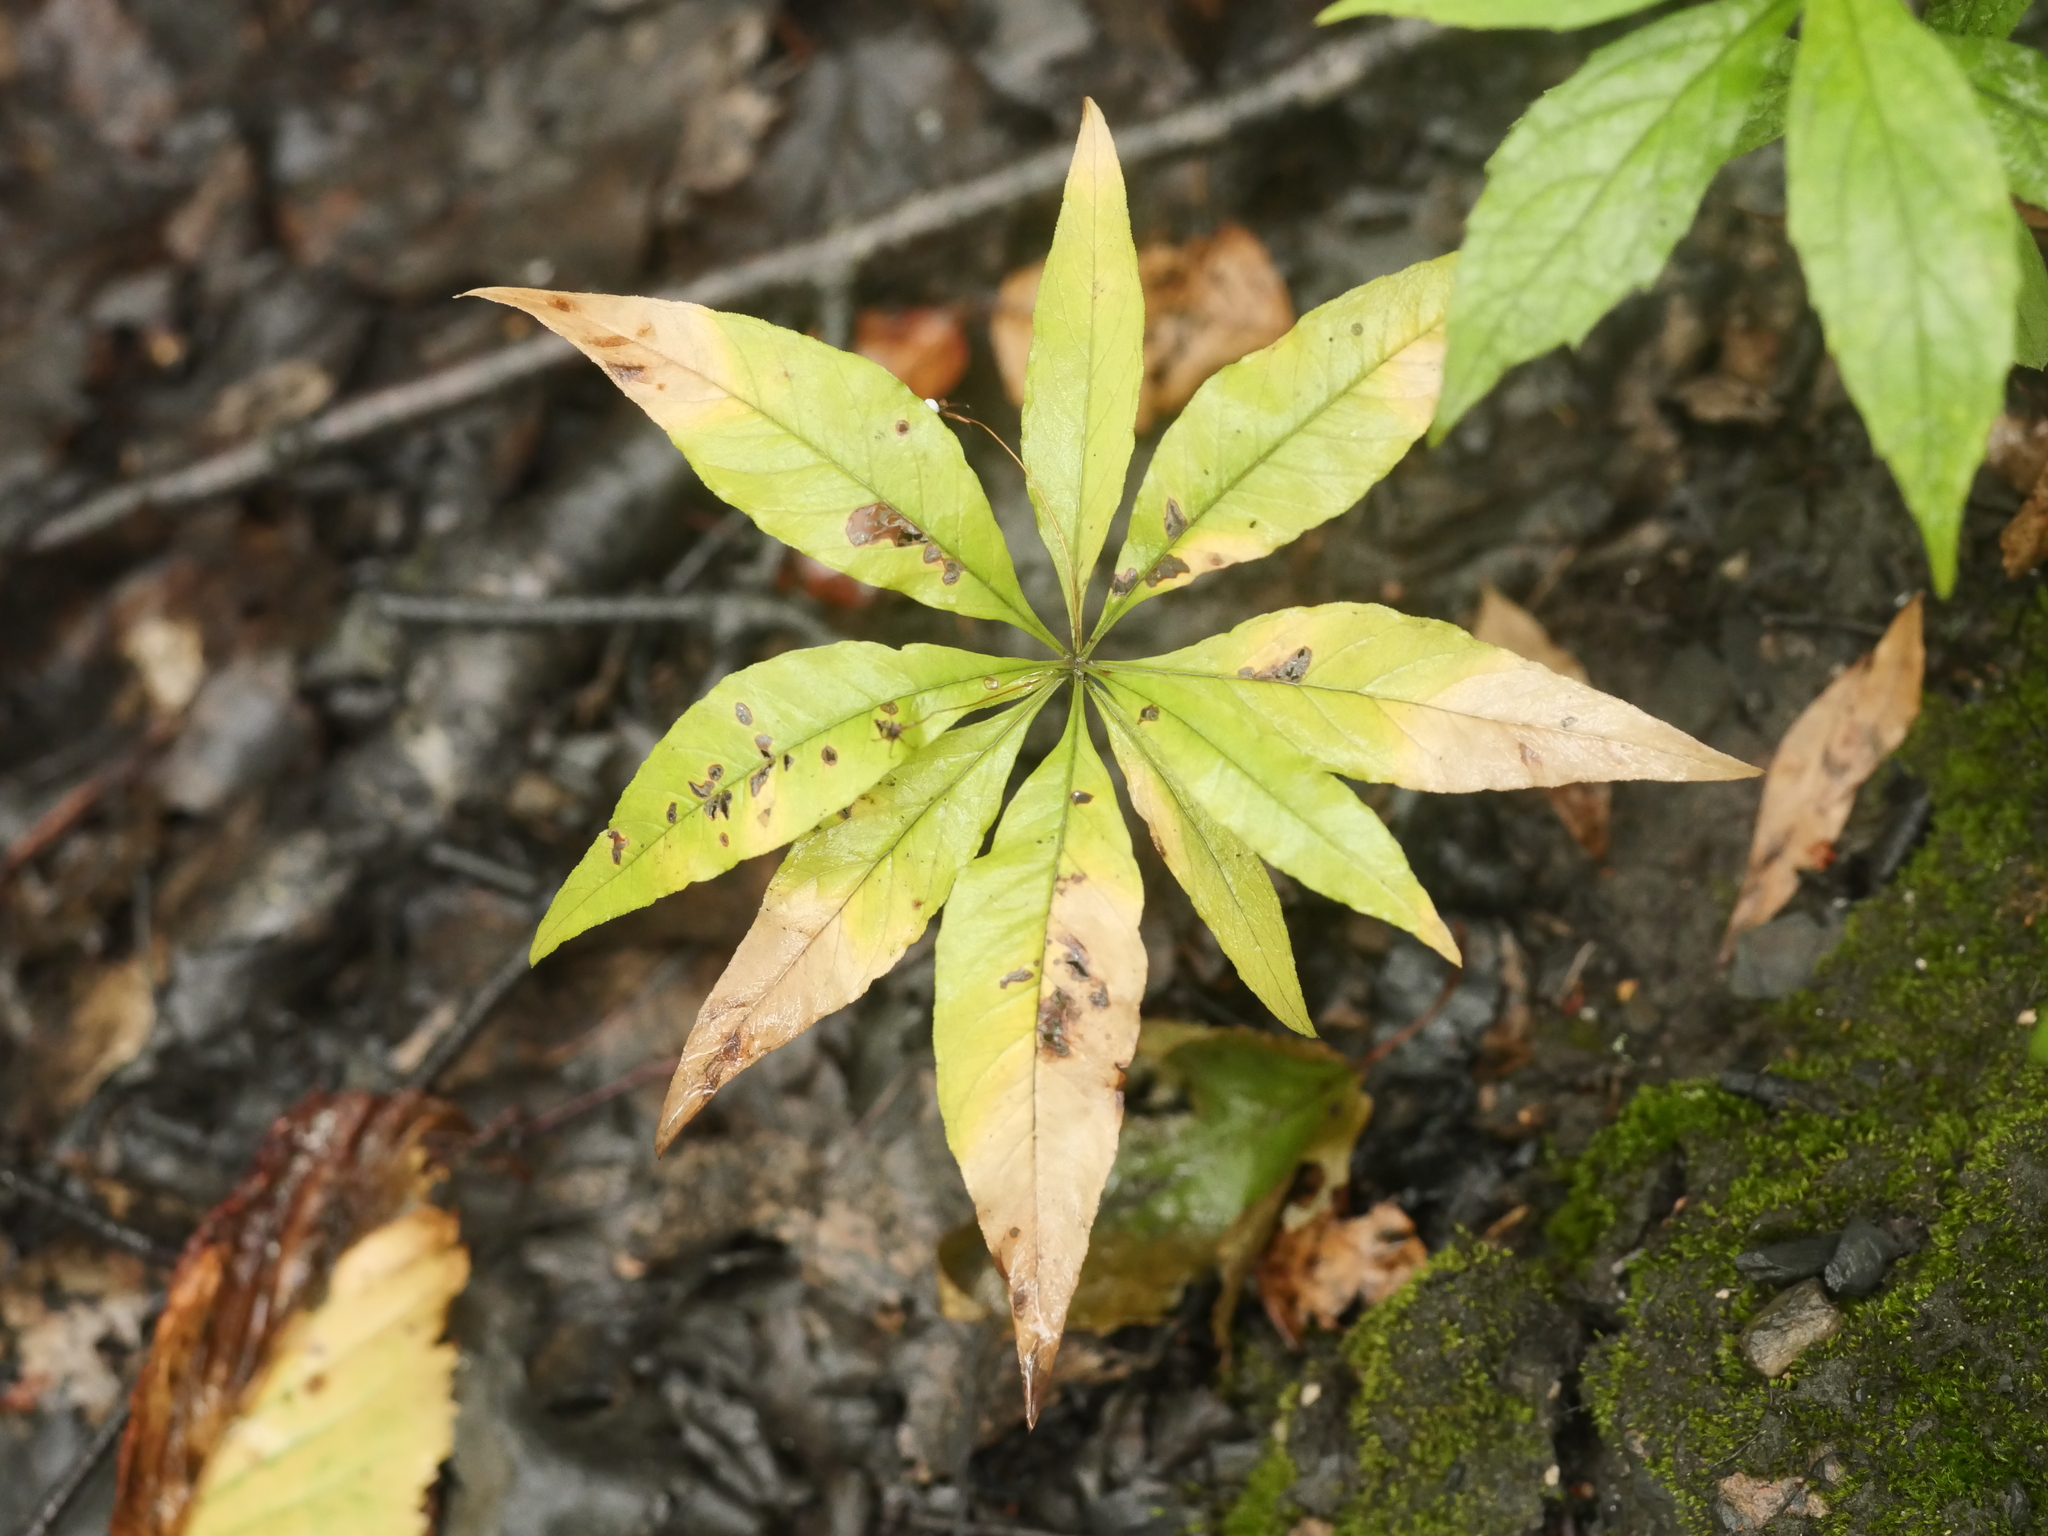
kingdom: Plantae
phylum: Tracheophyta
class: Magnoliopsida
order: Ericales
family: Primulaceae
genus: Lysimachia
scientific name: Lysimachia borealis
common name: American starflower
